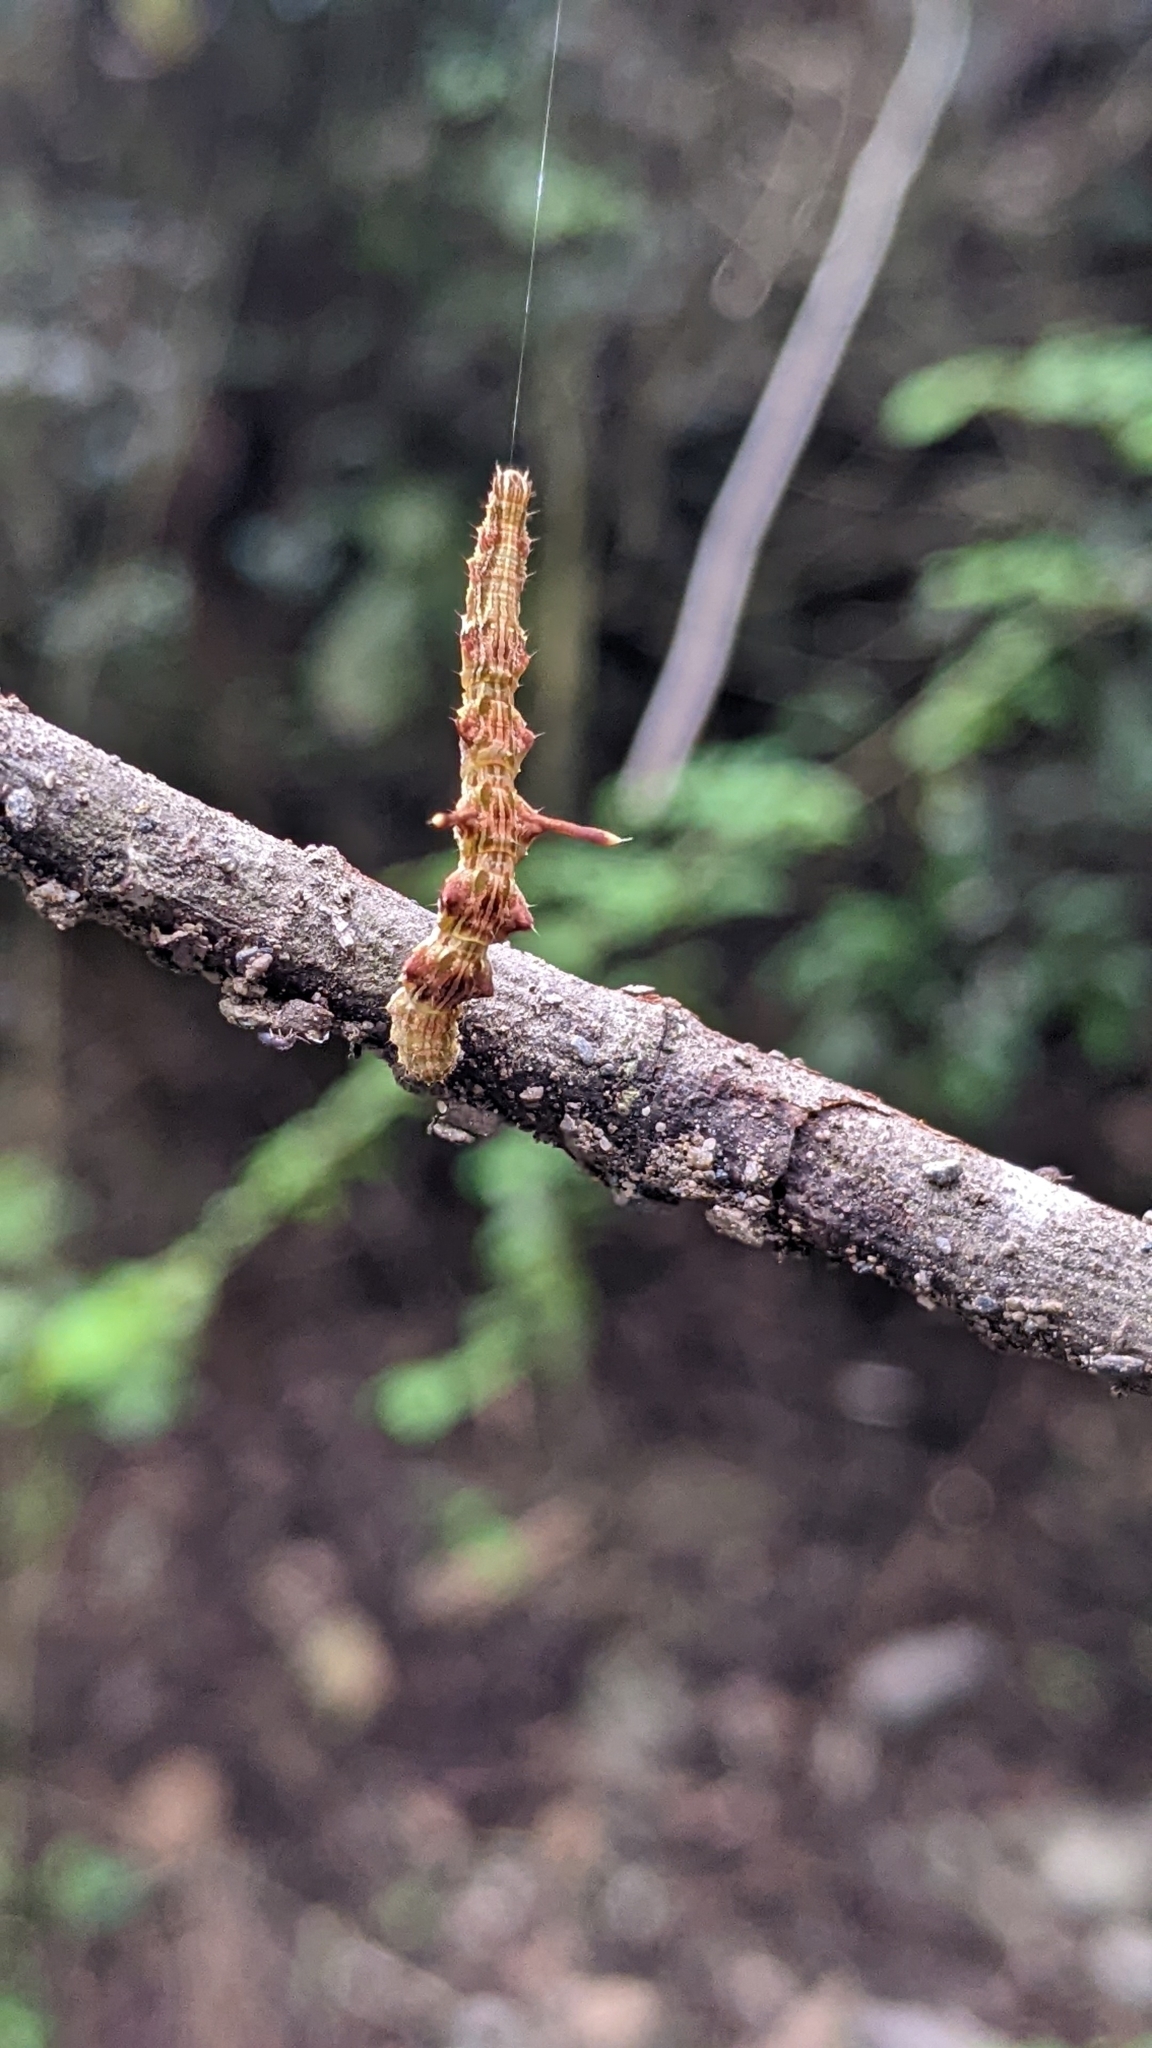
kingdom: Animalia
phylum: Arthropoda
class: Insecta
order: Lepidoptera
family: Geometridae
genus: Traminda
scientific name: Traminda aventiaria
